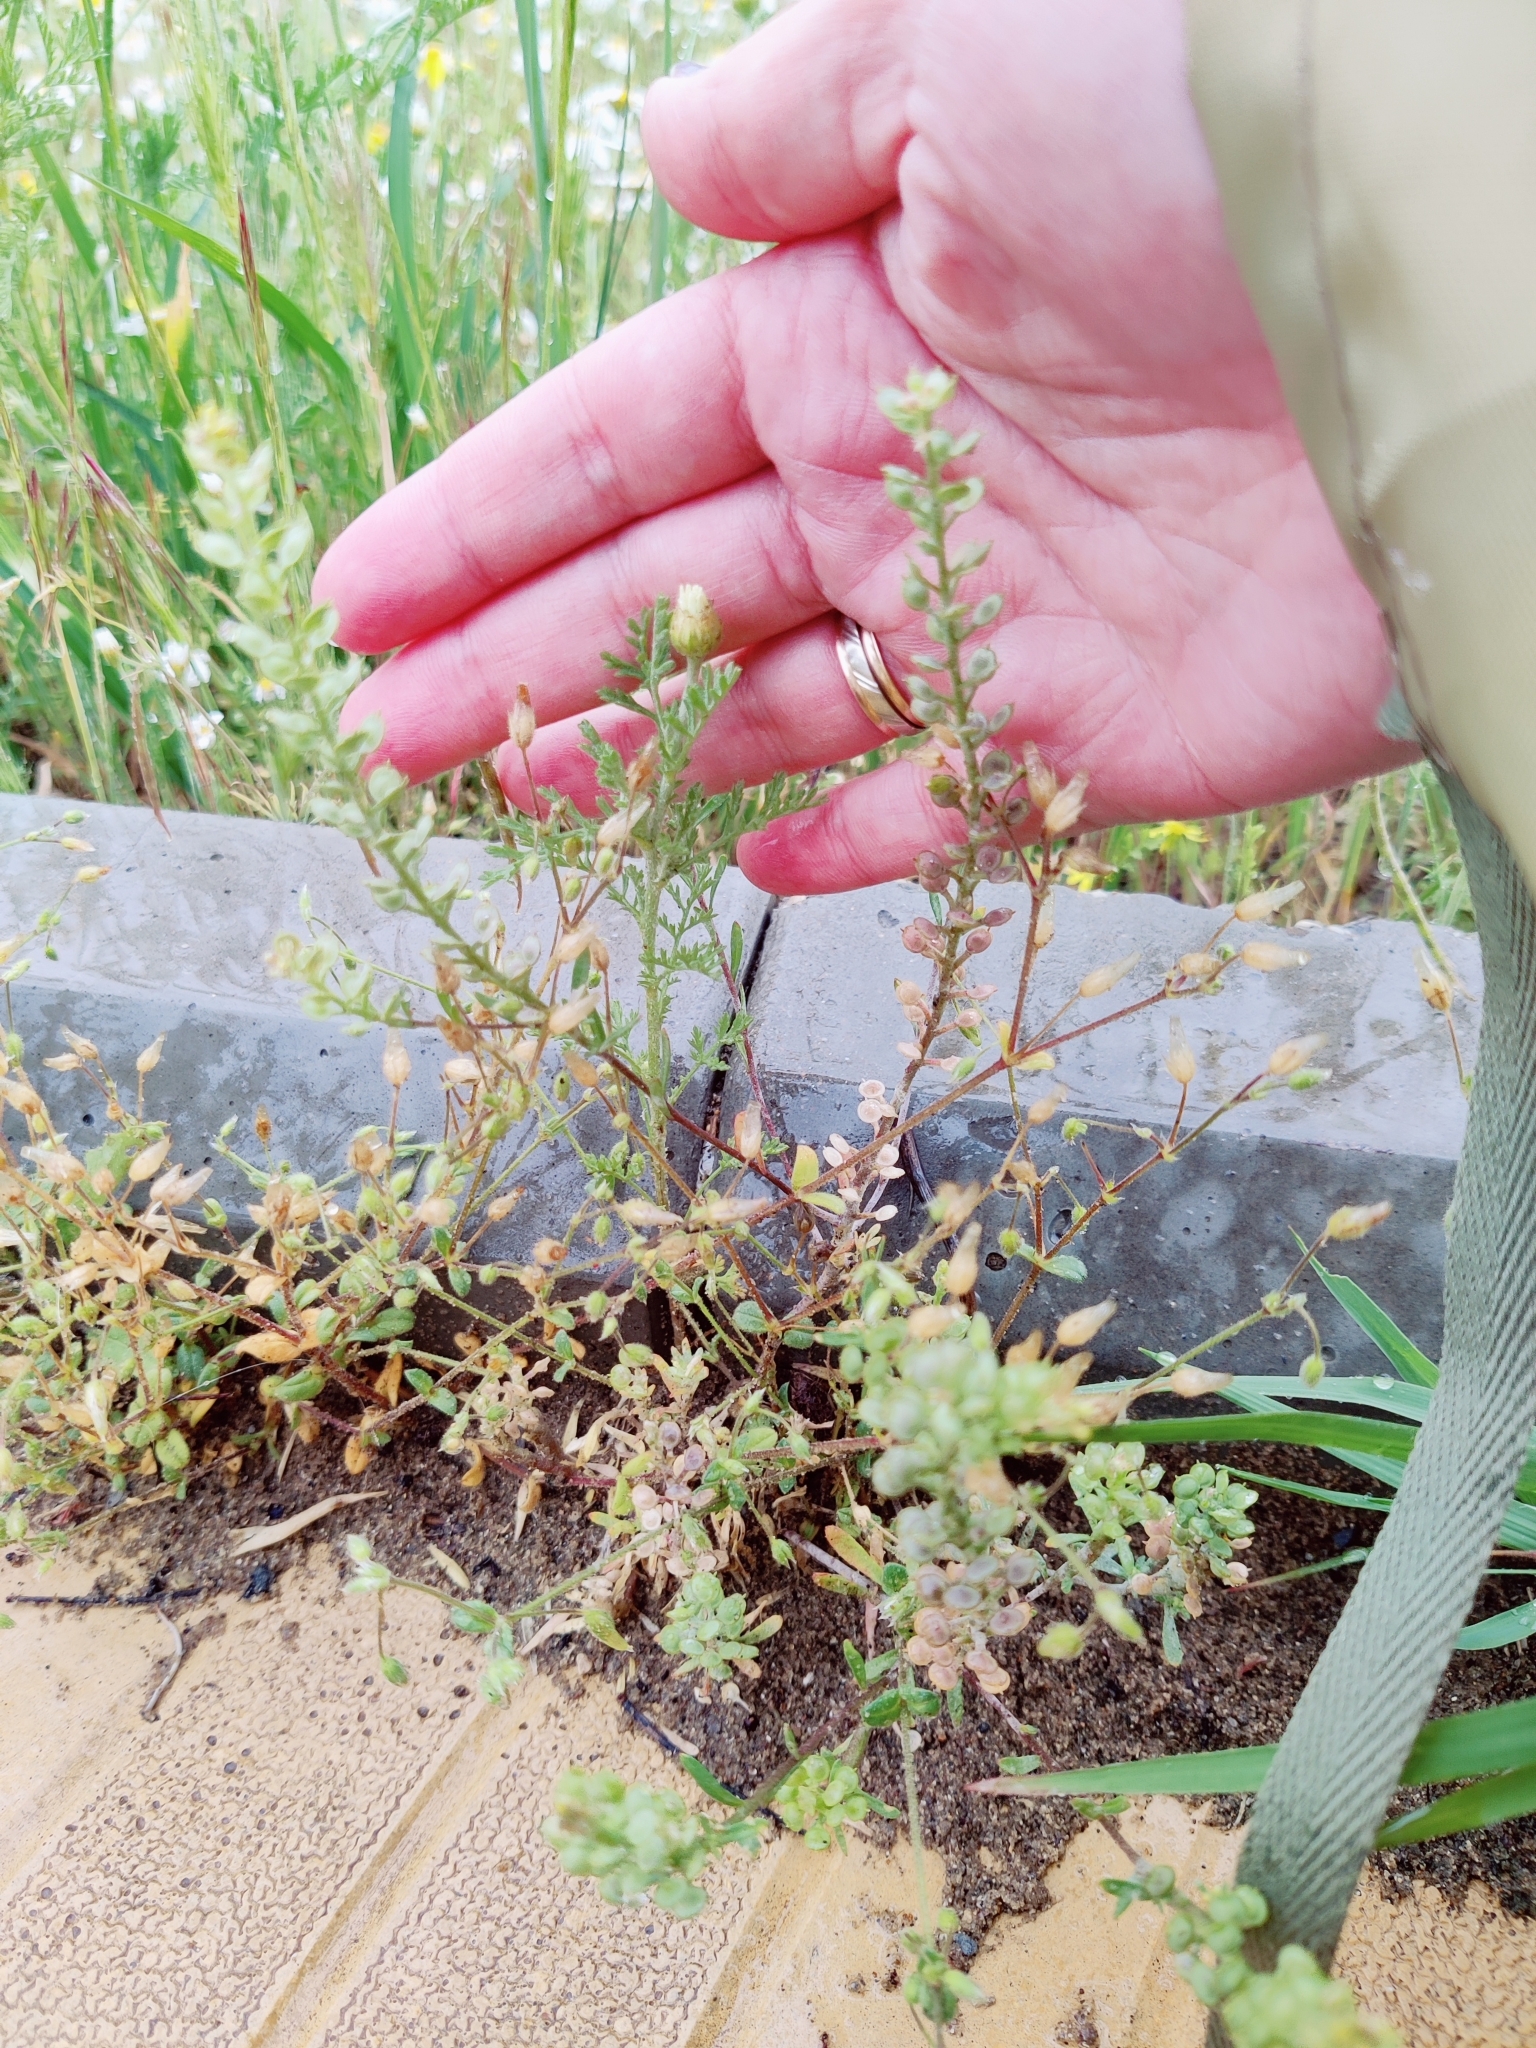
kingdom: Plantae
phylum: Tracheophyta
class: Magnoliopsida
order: Brassicales
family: Brassicaceae
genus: Alyssum
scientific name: Alyssum turkestanicum
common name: Desert alyssum
